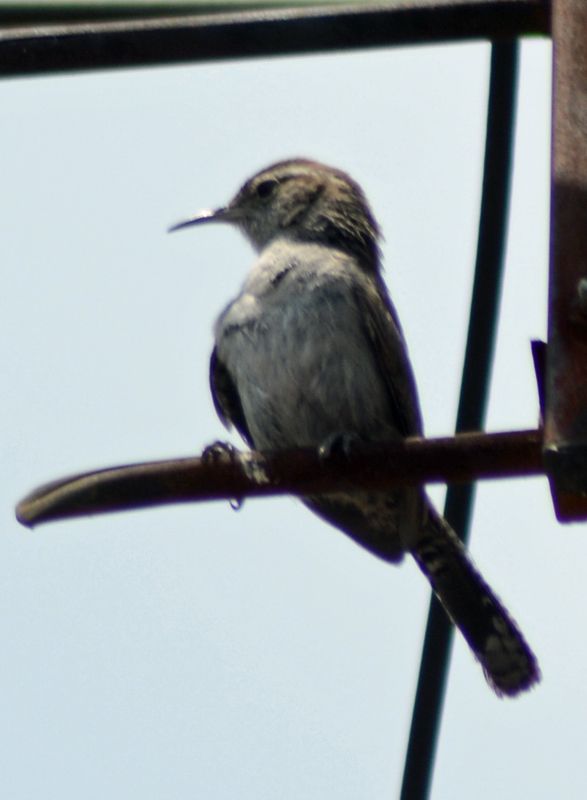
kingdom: Animalia
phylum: Chordata
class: Aves
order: Passeriformes
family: Troglodytidae
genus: Thryomanes
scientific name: Thryomanes bewickii
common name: Bewick's wren
